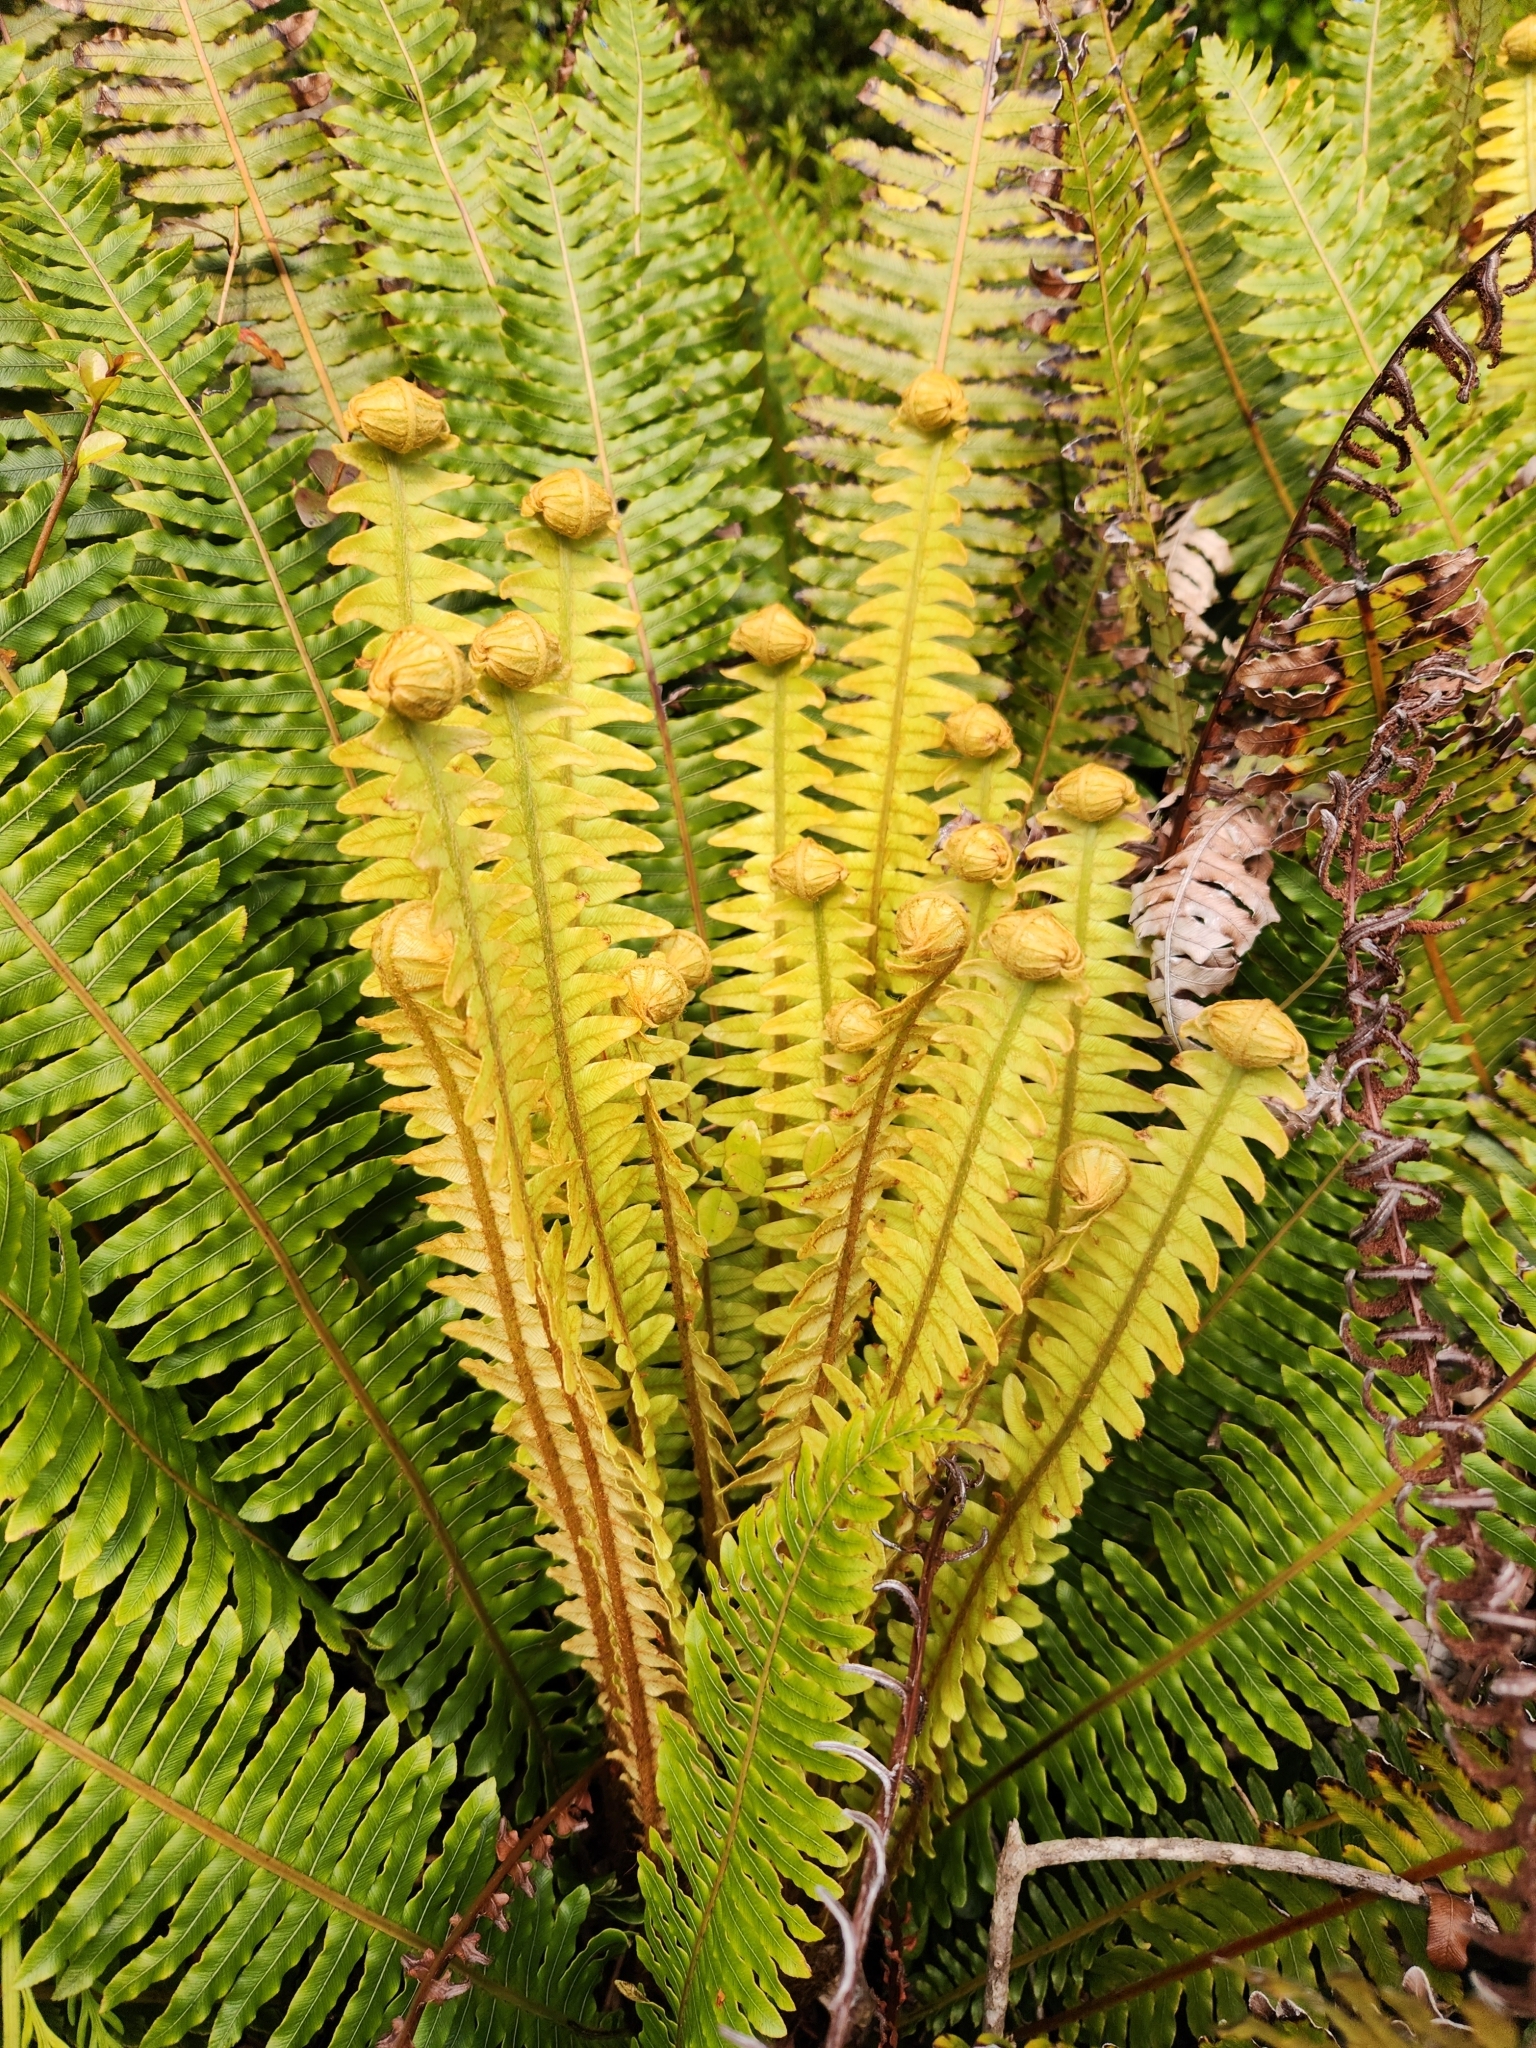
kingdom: Plantae
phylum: Tracheophyta
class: Polypodiopsida
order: Polypodiales
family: Blechnaceae
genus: Lomaria
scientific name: Lomaria discolor
